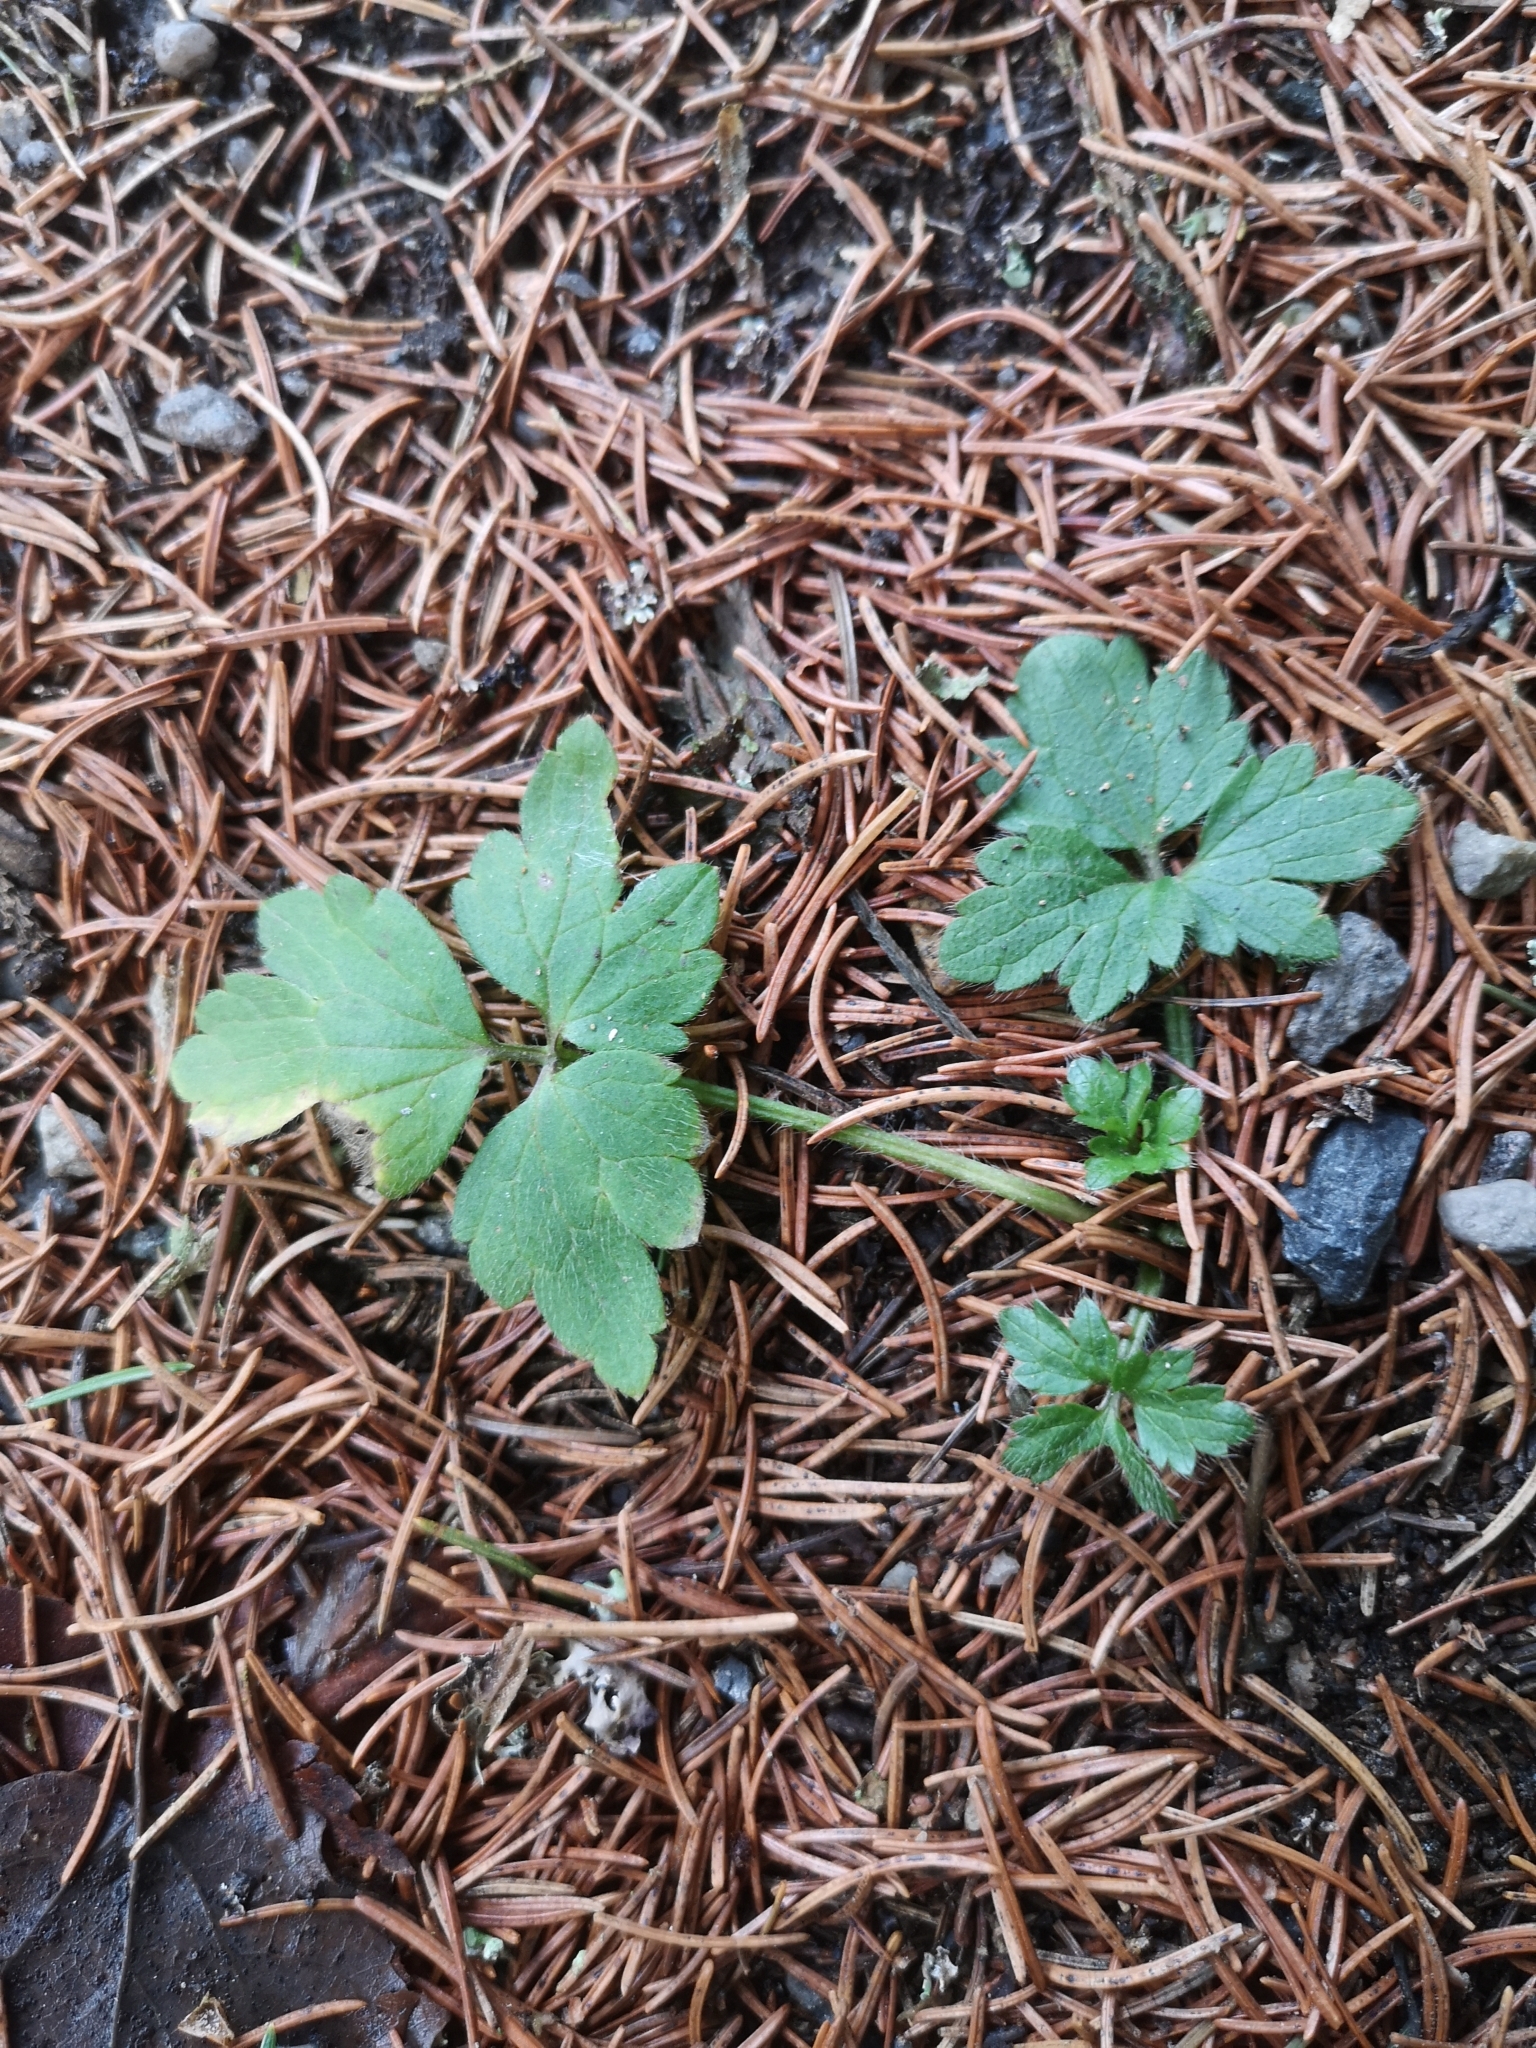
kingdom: Plantae
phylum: Tracheophyta
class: Magnoliopsida
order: Ranunculales
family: Ranunculaceae
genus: Ranunculus
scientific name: Ranunculus repens
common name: Creeping buttercup
